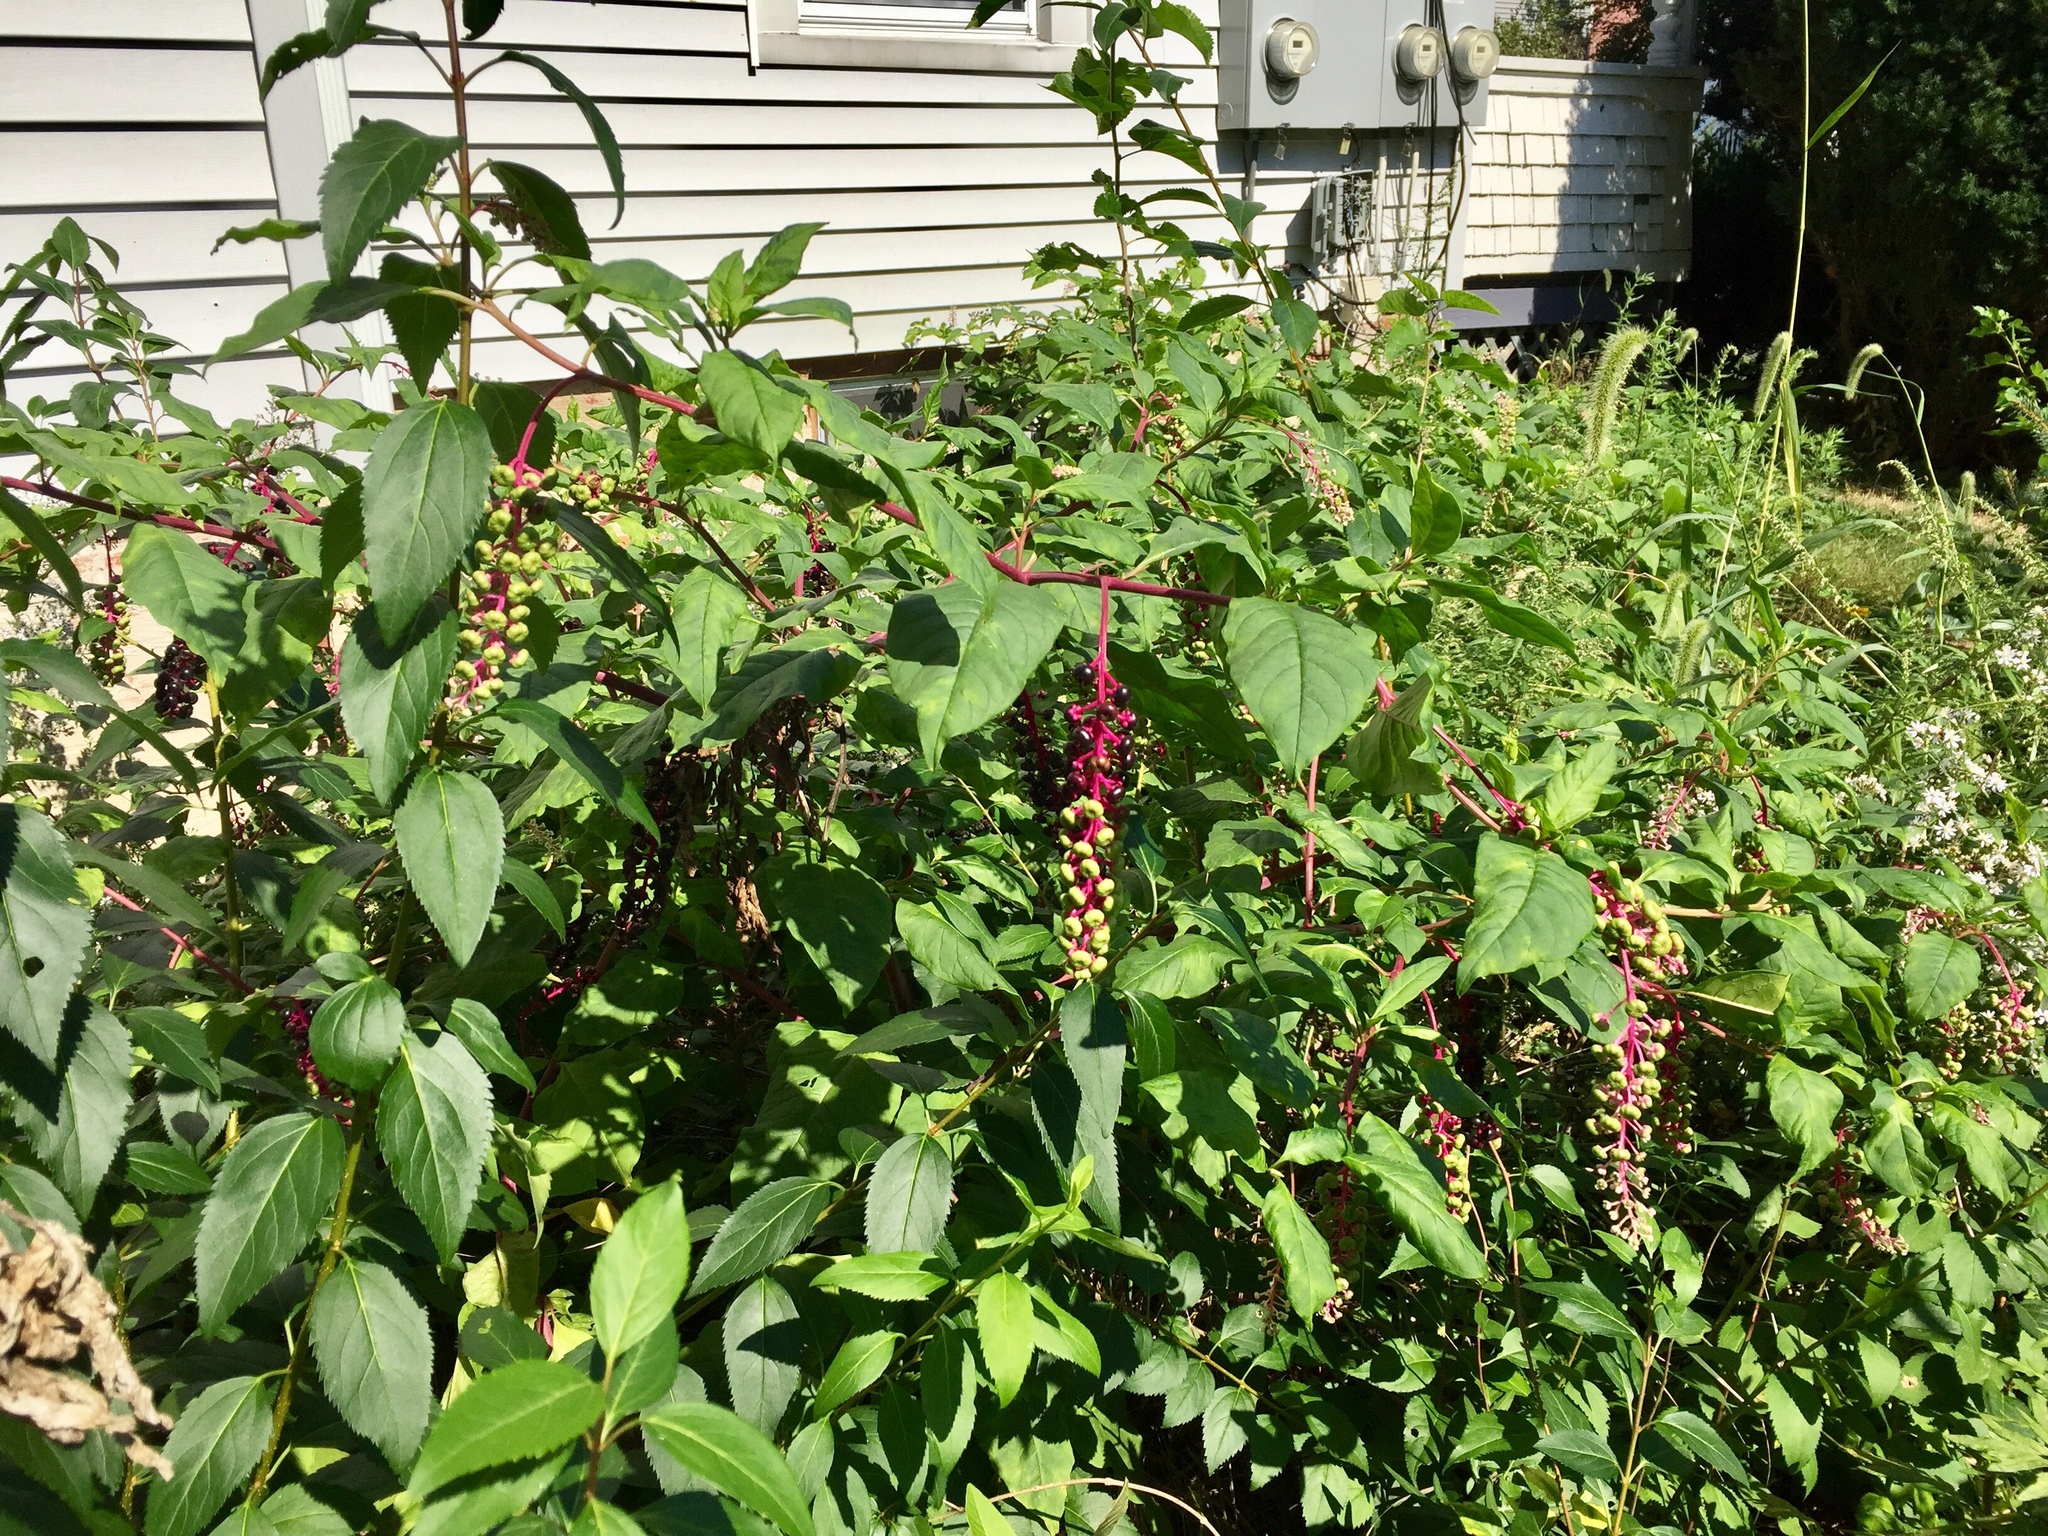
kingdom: Plantae
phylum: Tracheophyta
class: Magnoliopsida
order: Caryophyllales
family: Phytolaccaceae
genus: Phytolacca
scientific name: Phytolacca americana
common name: American pokeweed
